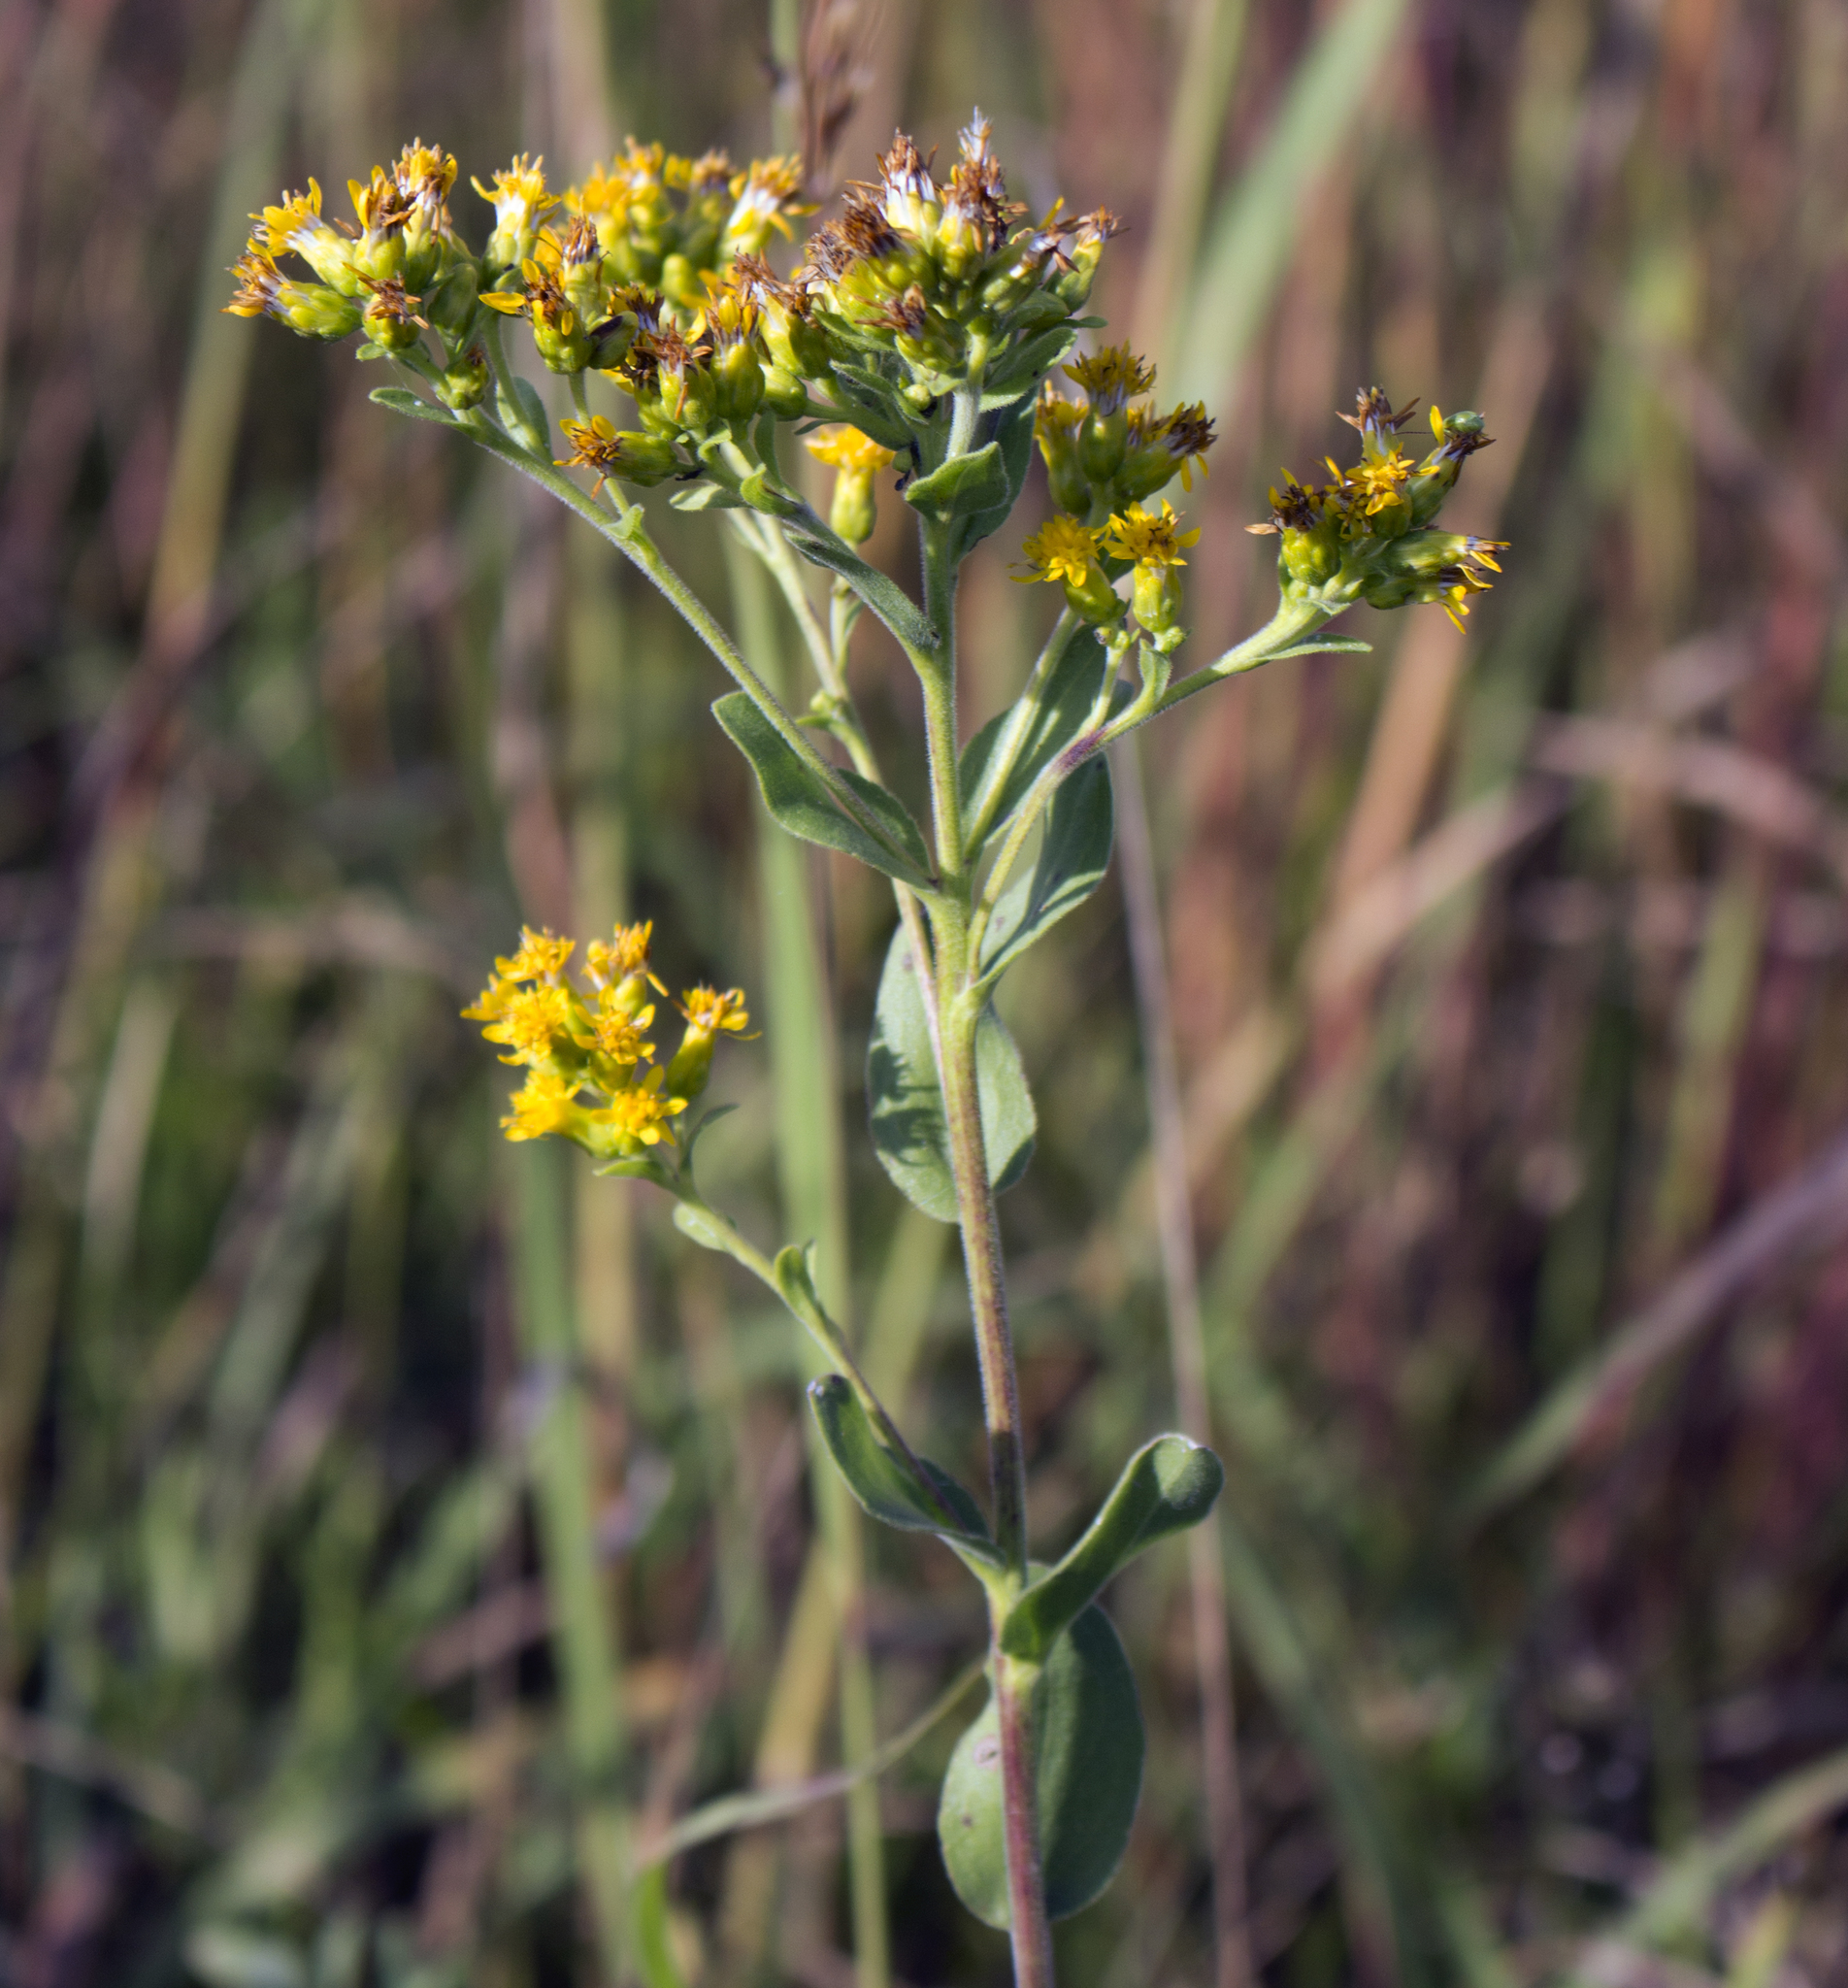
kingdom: Plantae
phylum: Tracheophyta
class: Magnoliopsida
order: Asterales
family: Asteraceae
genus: Solidago
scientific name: Solidago rigida
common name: Rigid goldenrod
